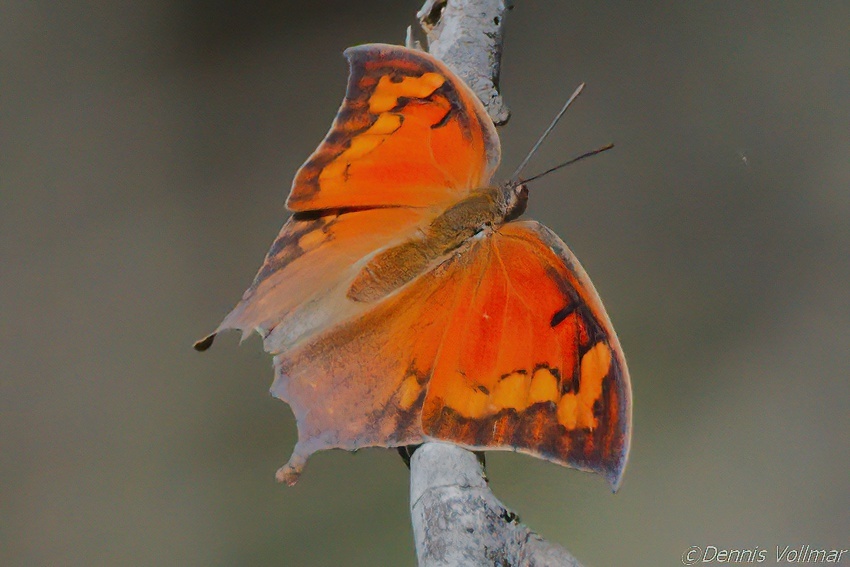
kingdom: Animalia
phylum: Arthropoda
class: Insecta
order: Lepidoptera
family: Nymphalidae
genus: Anaea
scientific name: Anaea aidea
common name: Tropical leafwing
